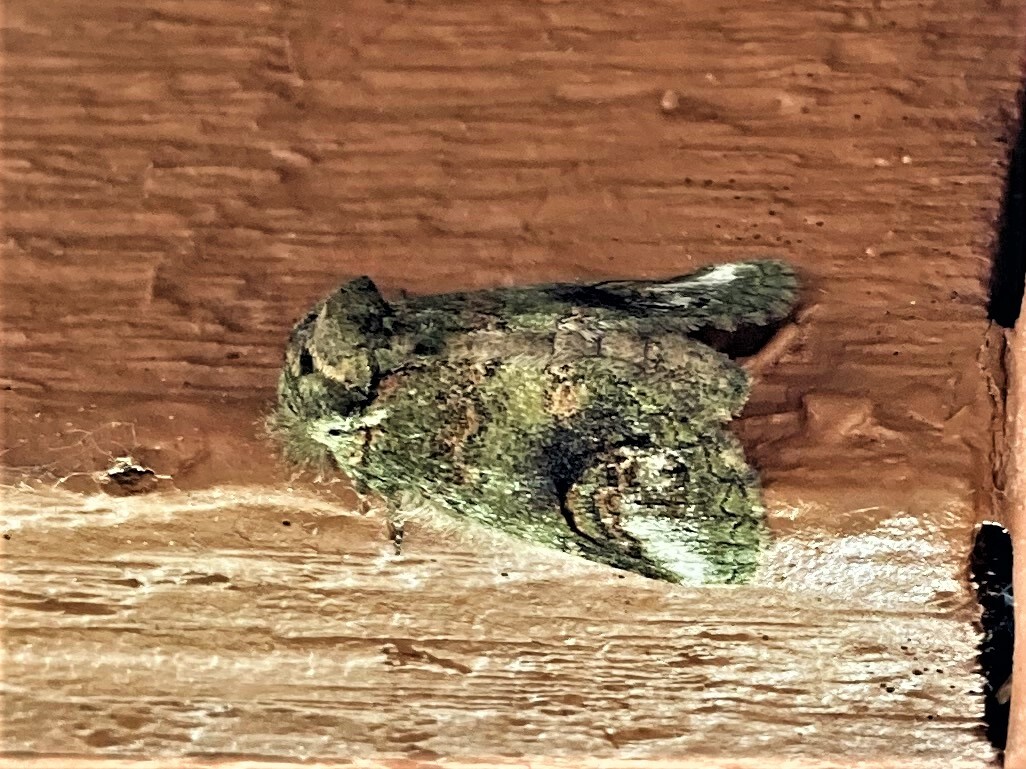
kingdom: Animalia
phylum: Arthropoda
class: Insecta
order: Lepidoptera
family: Notodontidae
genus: Rifargia
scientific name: Rifargia
